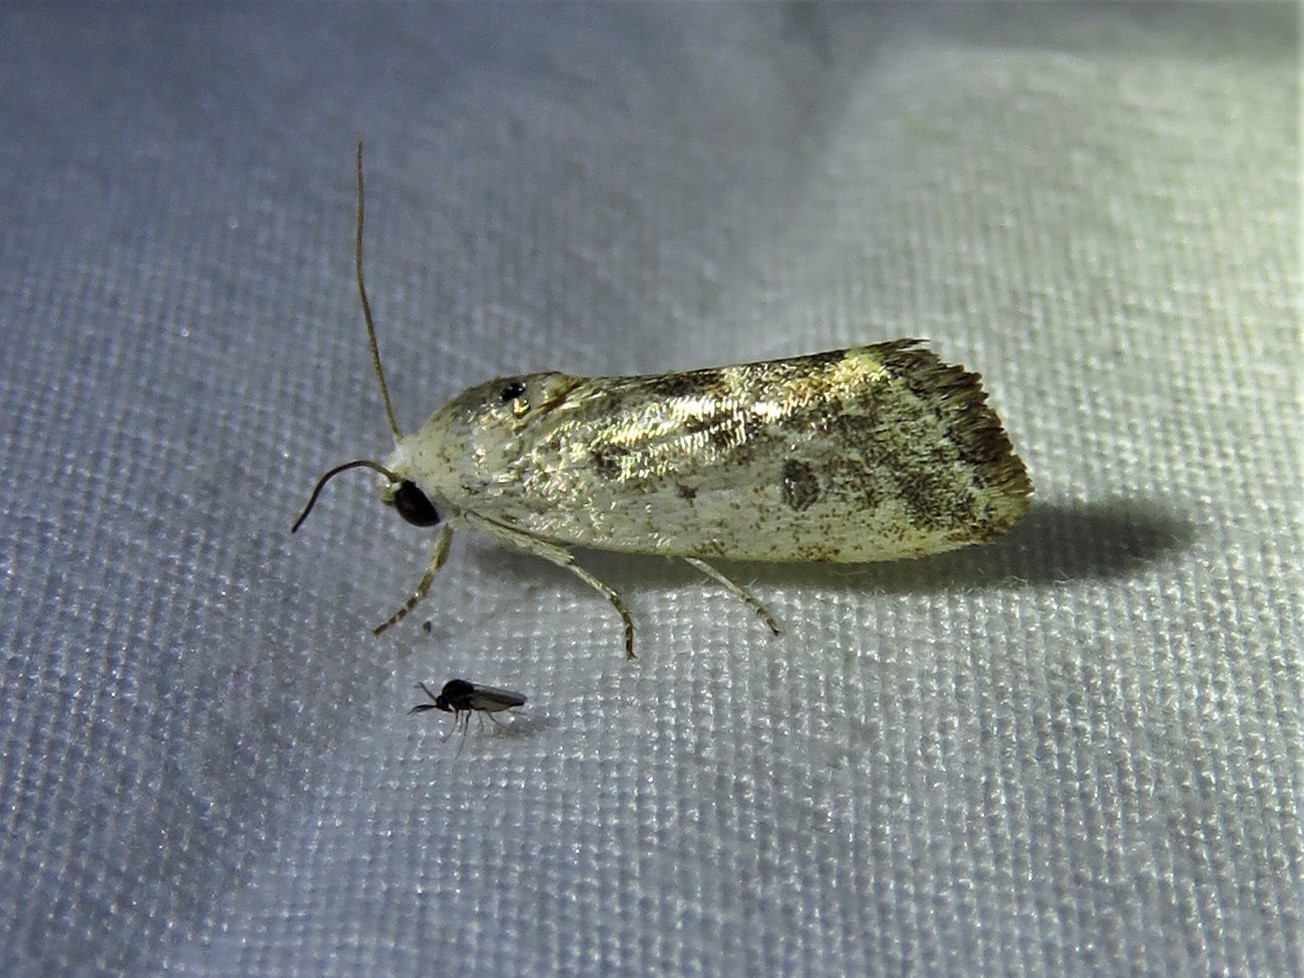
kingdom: Animalia
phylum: Arthropoda
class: Insecta
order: Lepidoptera
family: Noctuidae
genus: Acontia
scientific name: Acontia fasciatella
